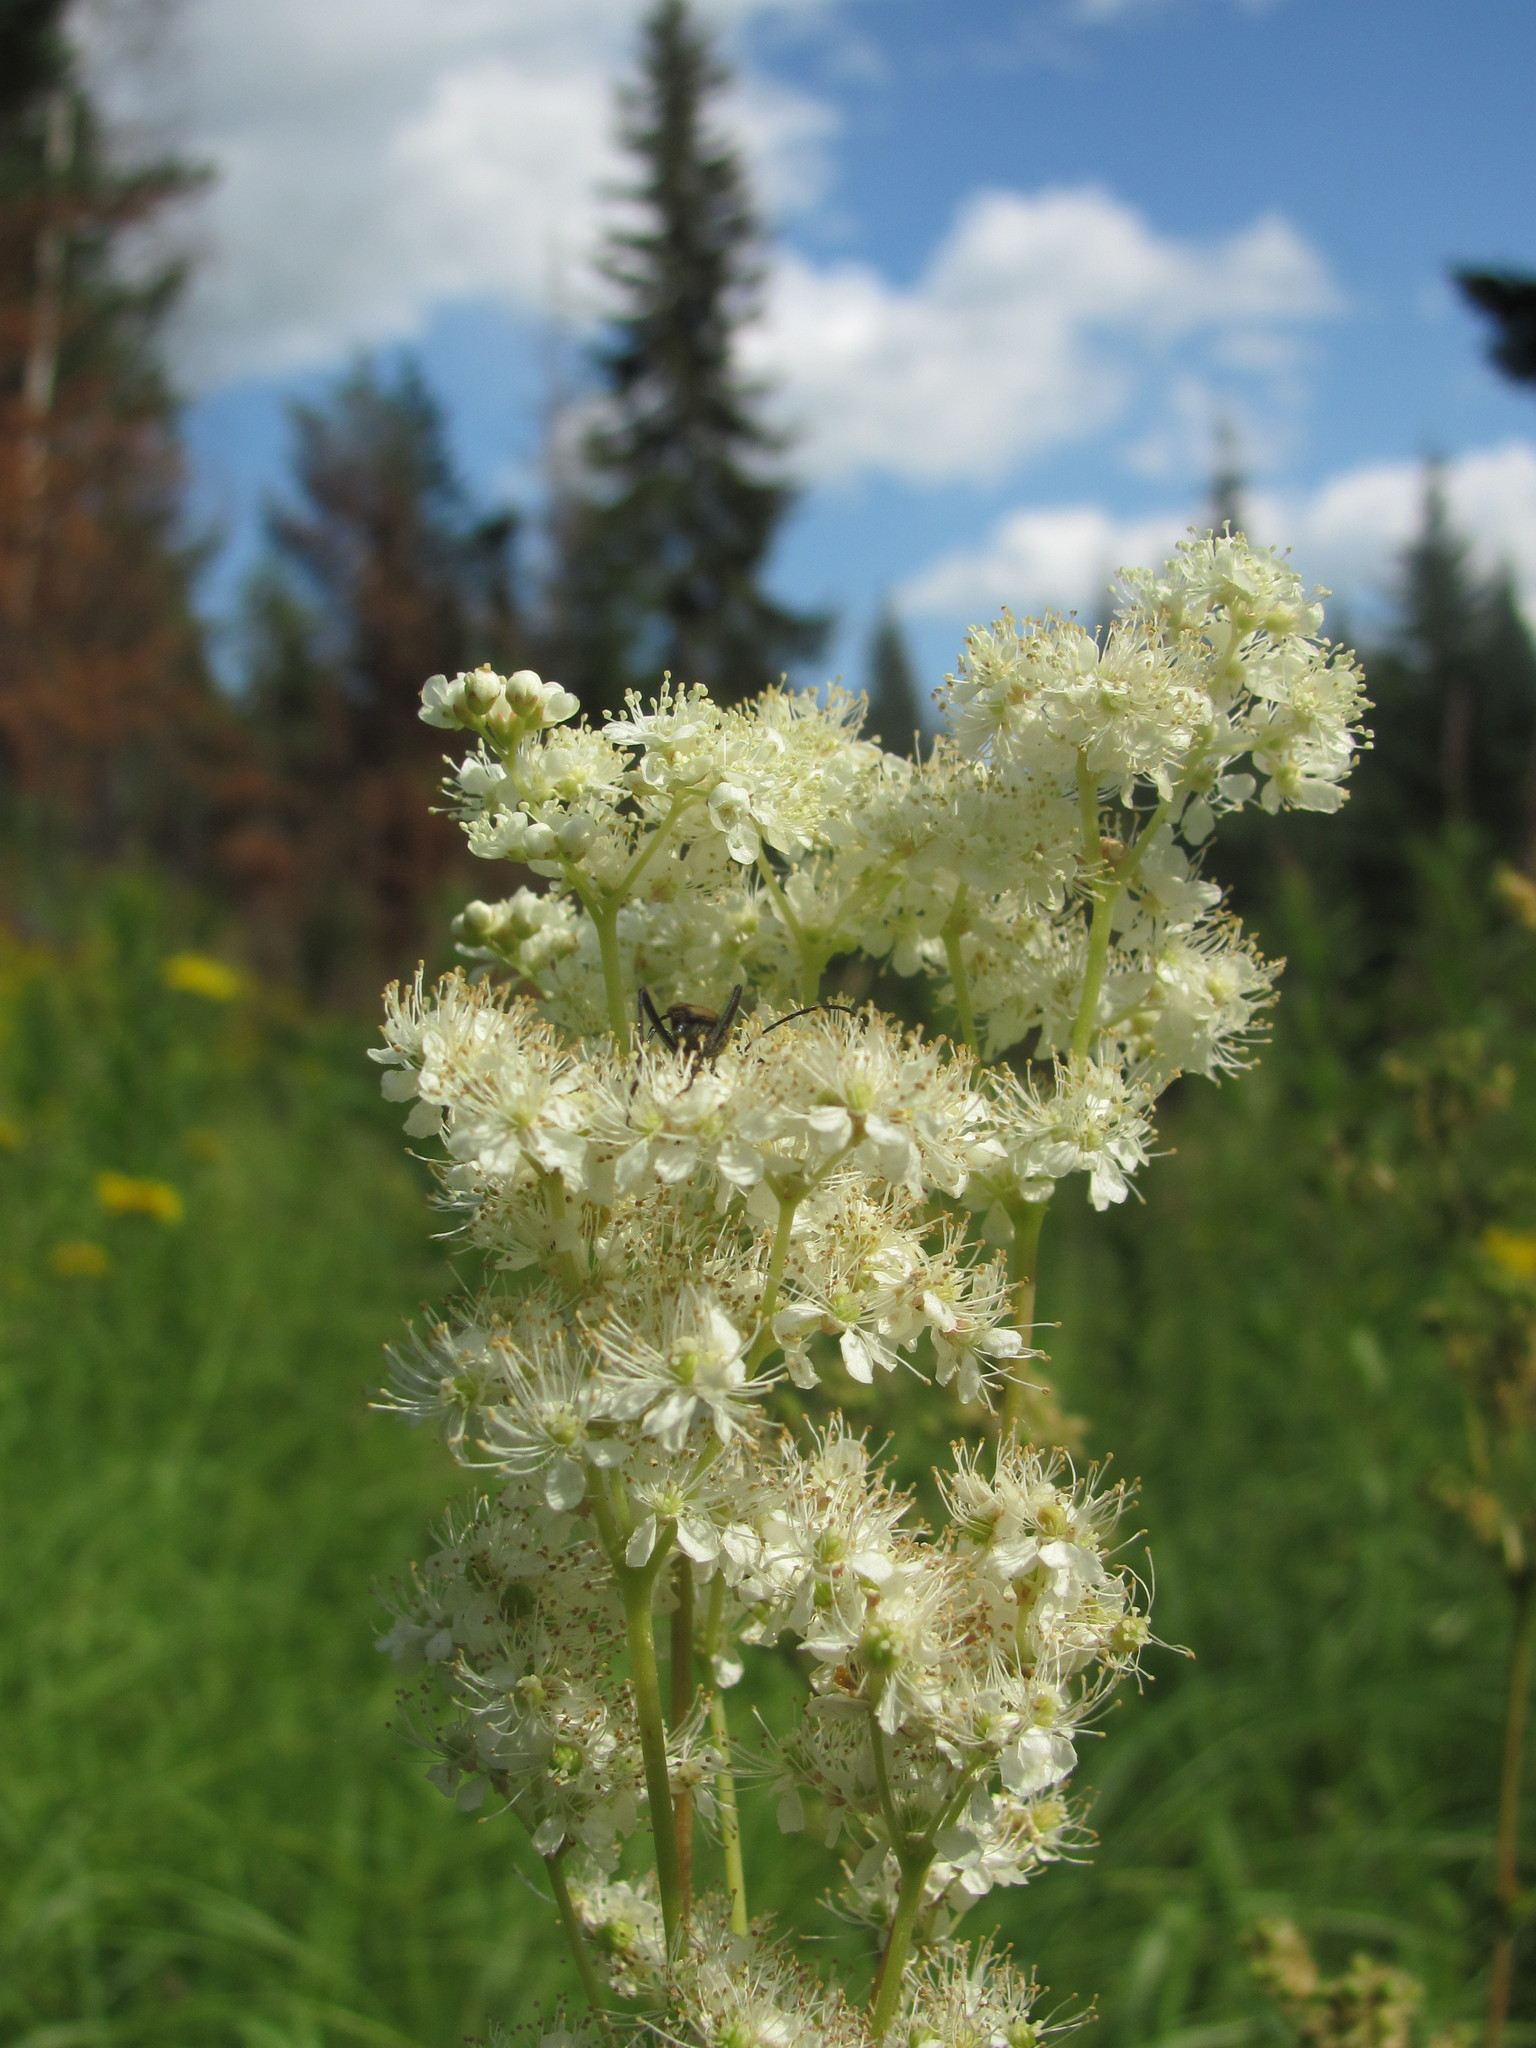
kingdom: Plantae
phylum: Tracheophyta
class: Magnoliopsida
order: Rosales
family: Rosaceae
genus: Filipendula
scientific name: Filipendula ulmaria
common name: Meadowsweet
